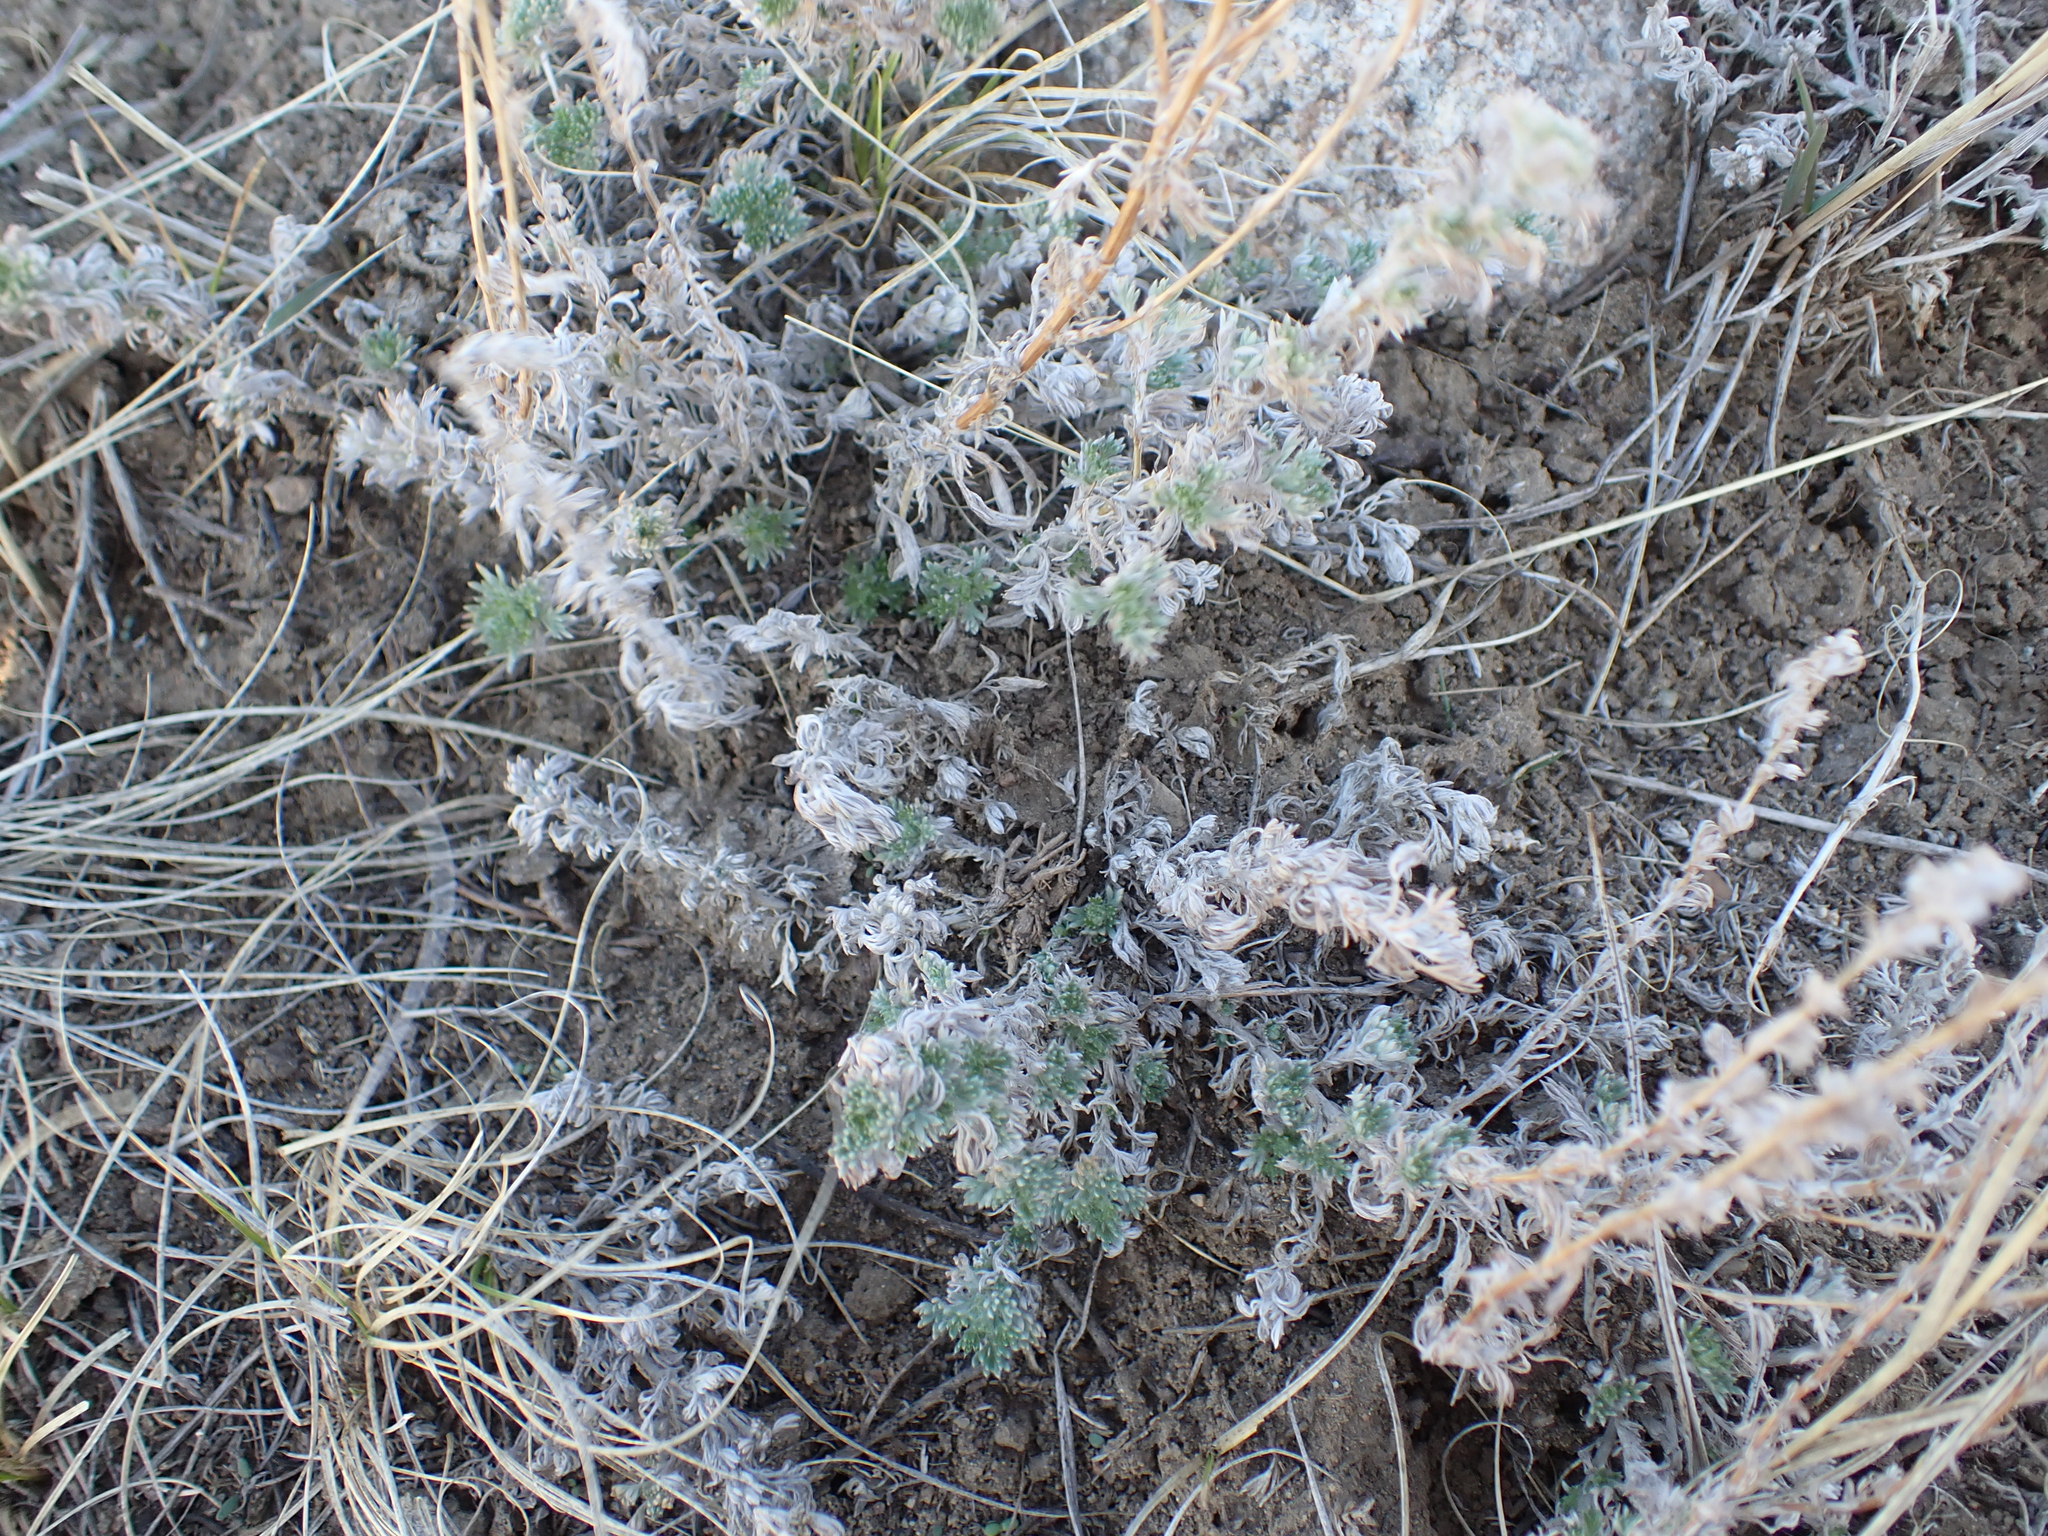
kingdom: Plantae
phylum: Tracheophyta
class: Magnoliopsida
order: Asterales
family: Asteraceae
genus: Artemisia
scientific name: Artemisia frigida
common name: Prairie sagewort
